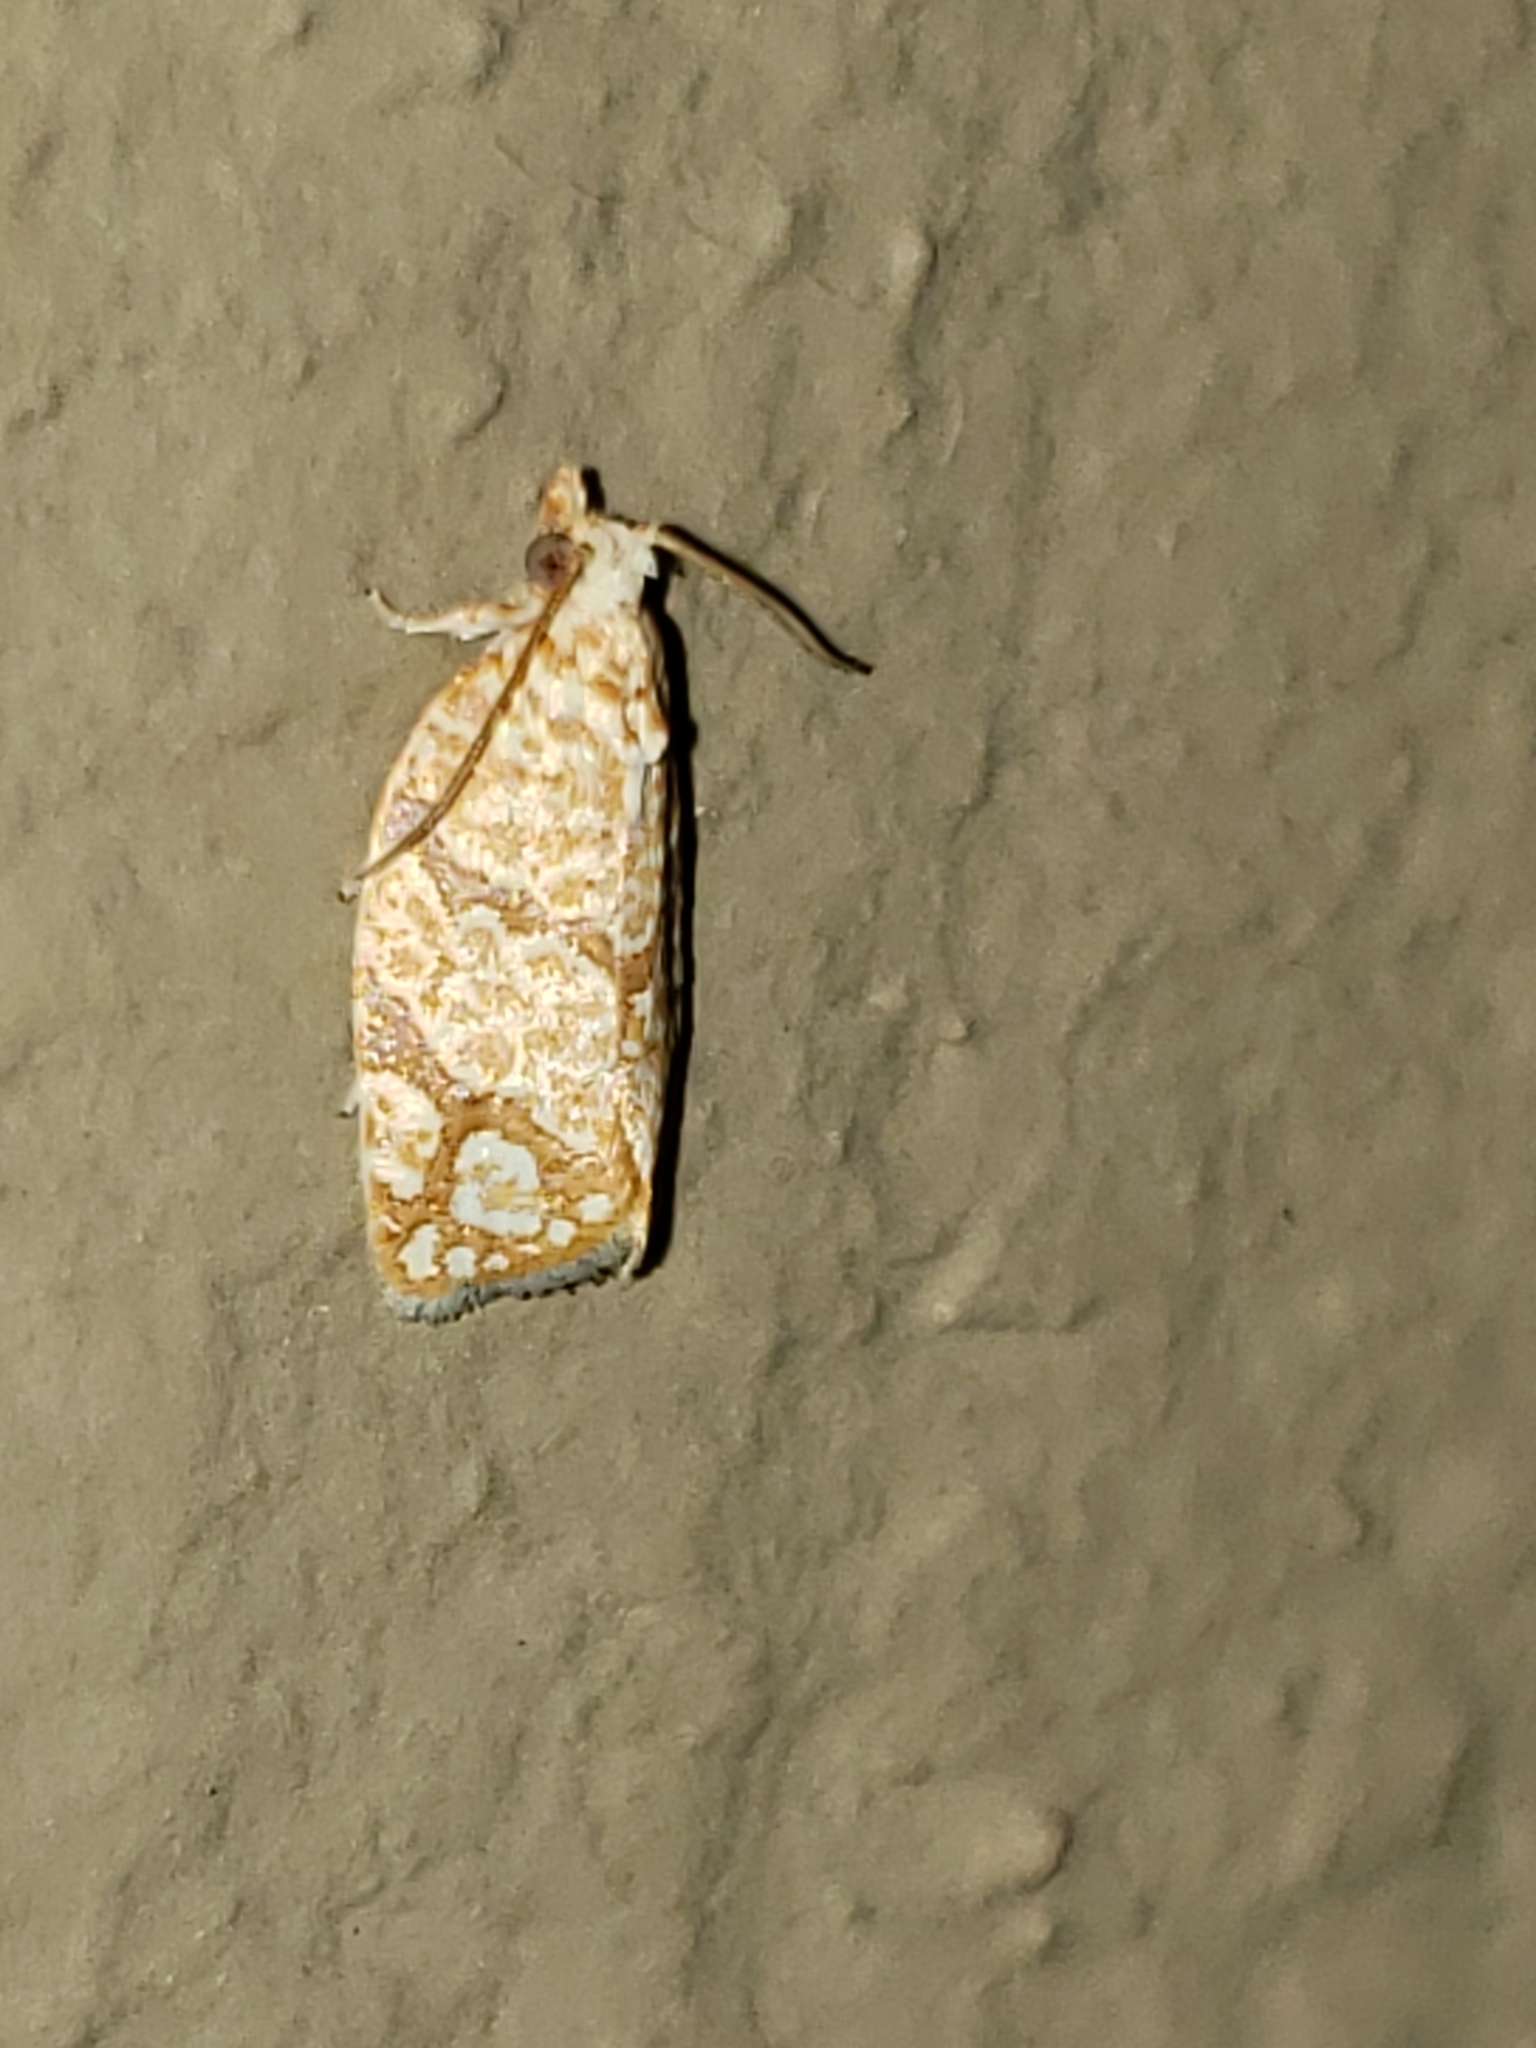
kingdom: Animalia
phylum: Arthropoda
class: Insecta
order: Lepidoptera
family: Tortricidae
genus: Argyrotaenia
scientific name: Argyrotaenia quercifoliana
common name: Yellow-winged oak leafroller moth
